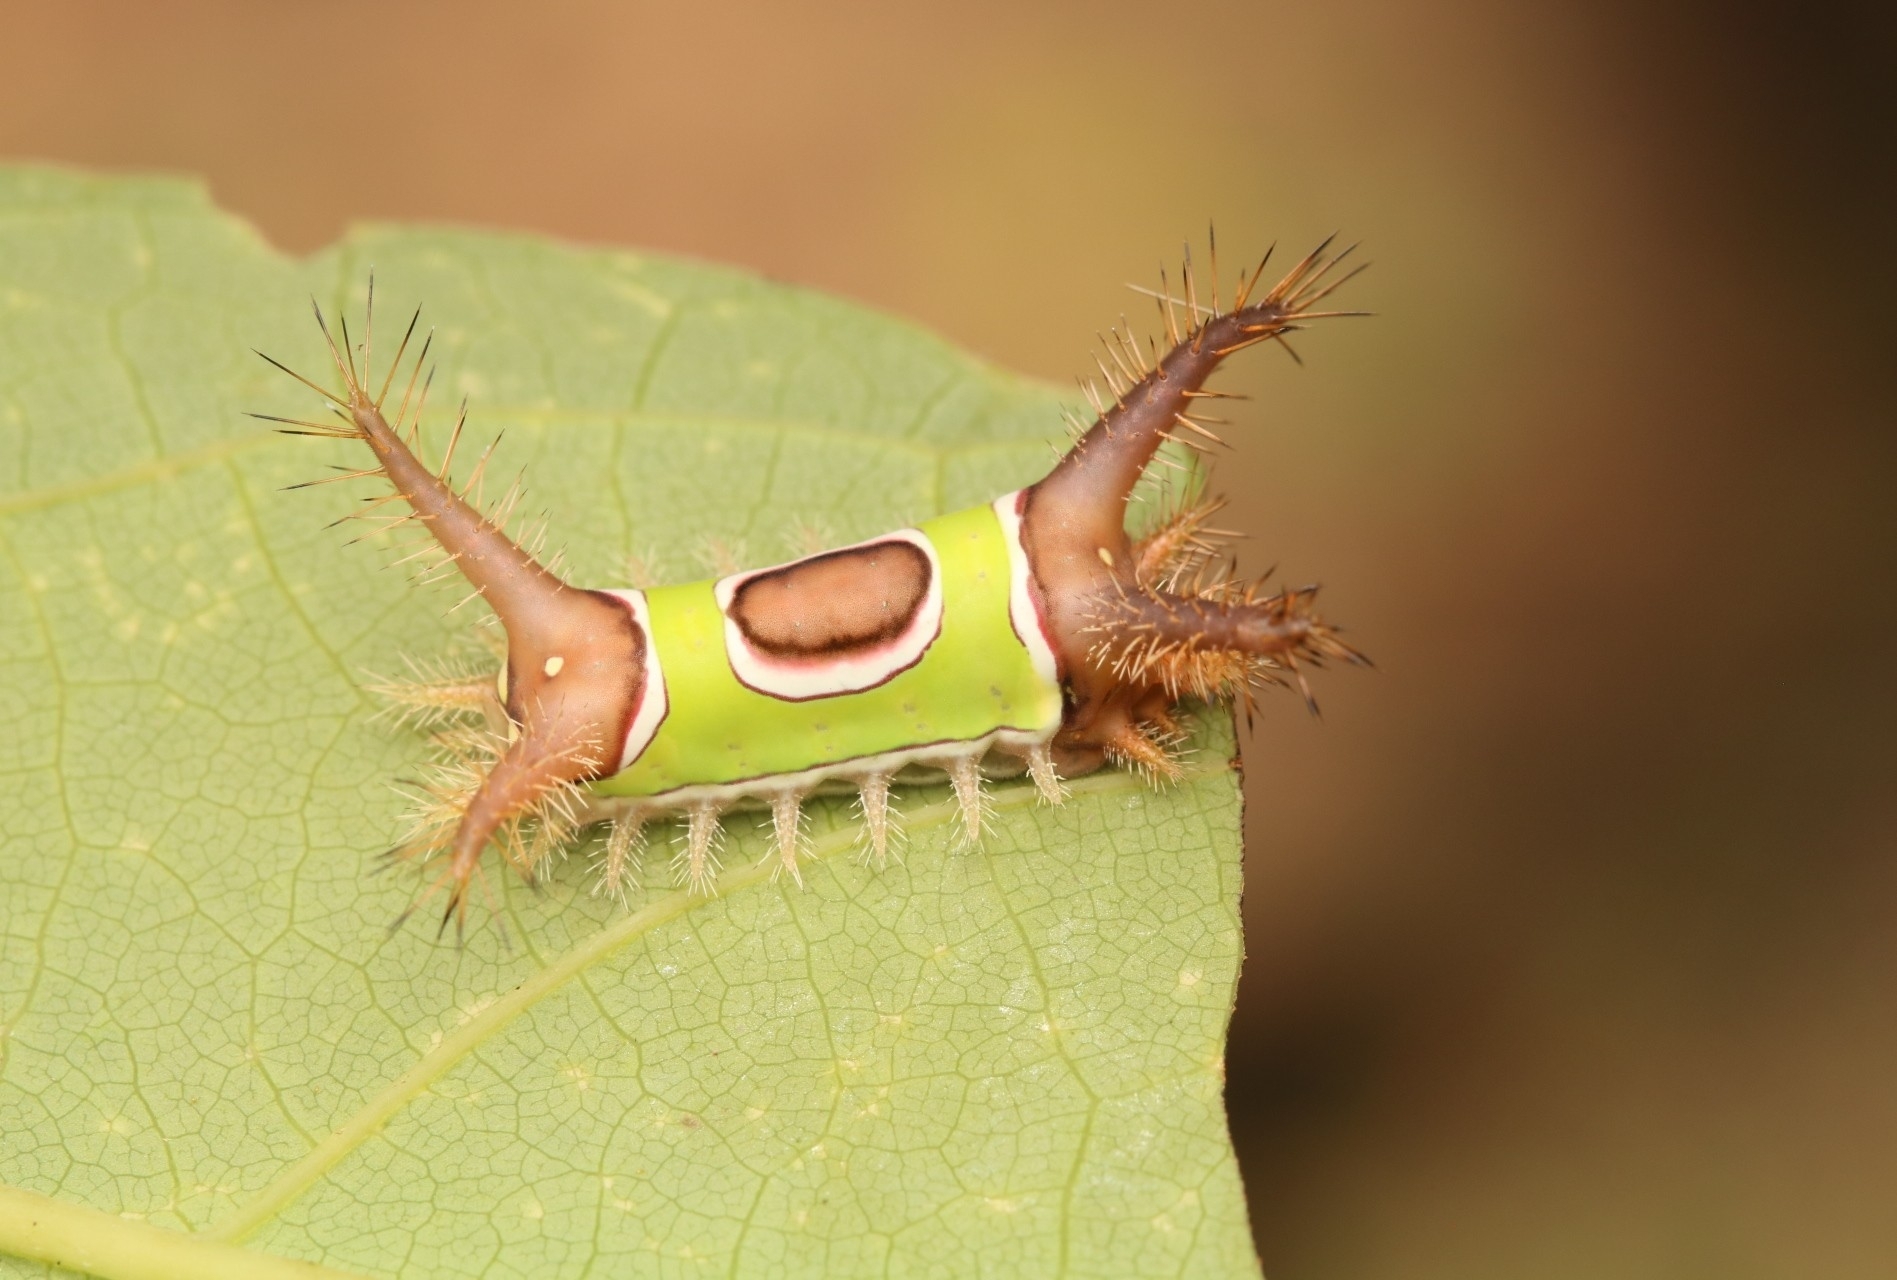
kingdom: Animalia
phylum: Arthropoda
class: Insecta
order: Lepidoptera
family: Limacodidae
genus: Acharia
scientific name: Acharia stimulea
